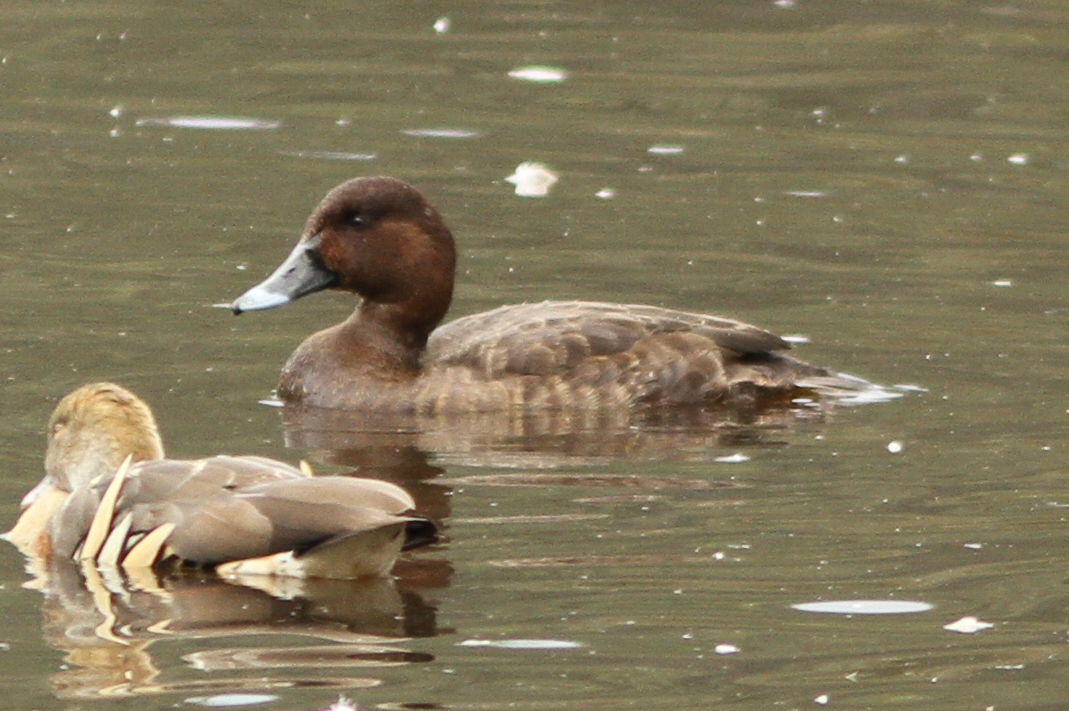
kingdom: Animalia
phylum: Chordata
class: Aves
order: Anseriformes
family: Anatidae
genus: Aythya
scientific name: Aythya australis
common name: Hardhead
